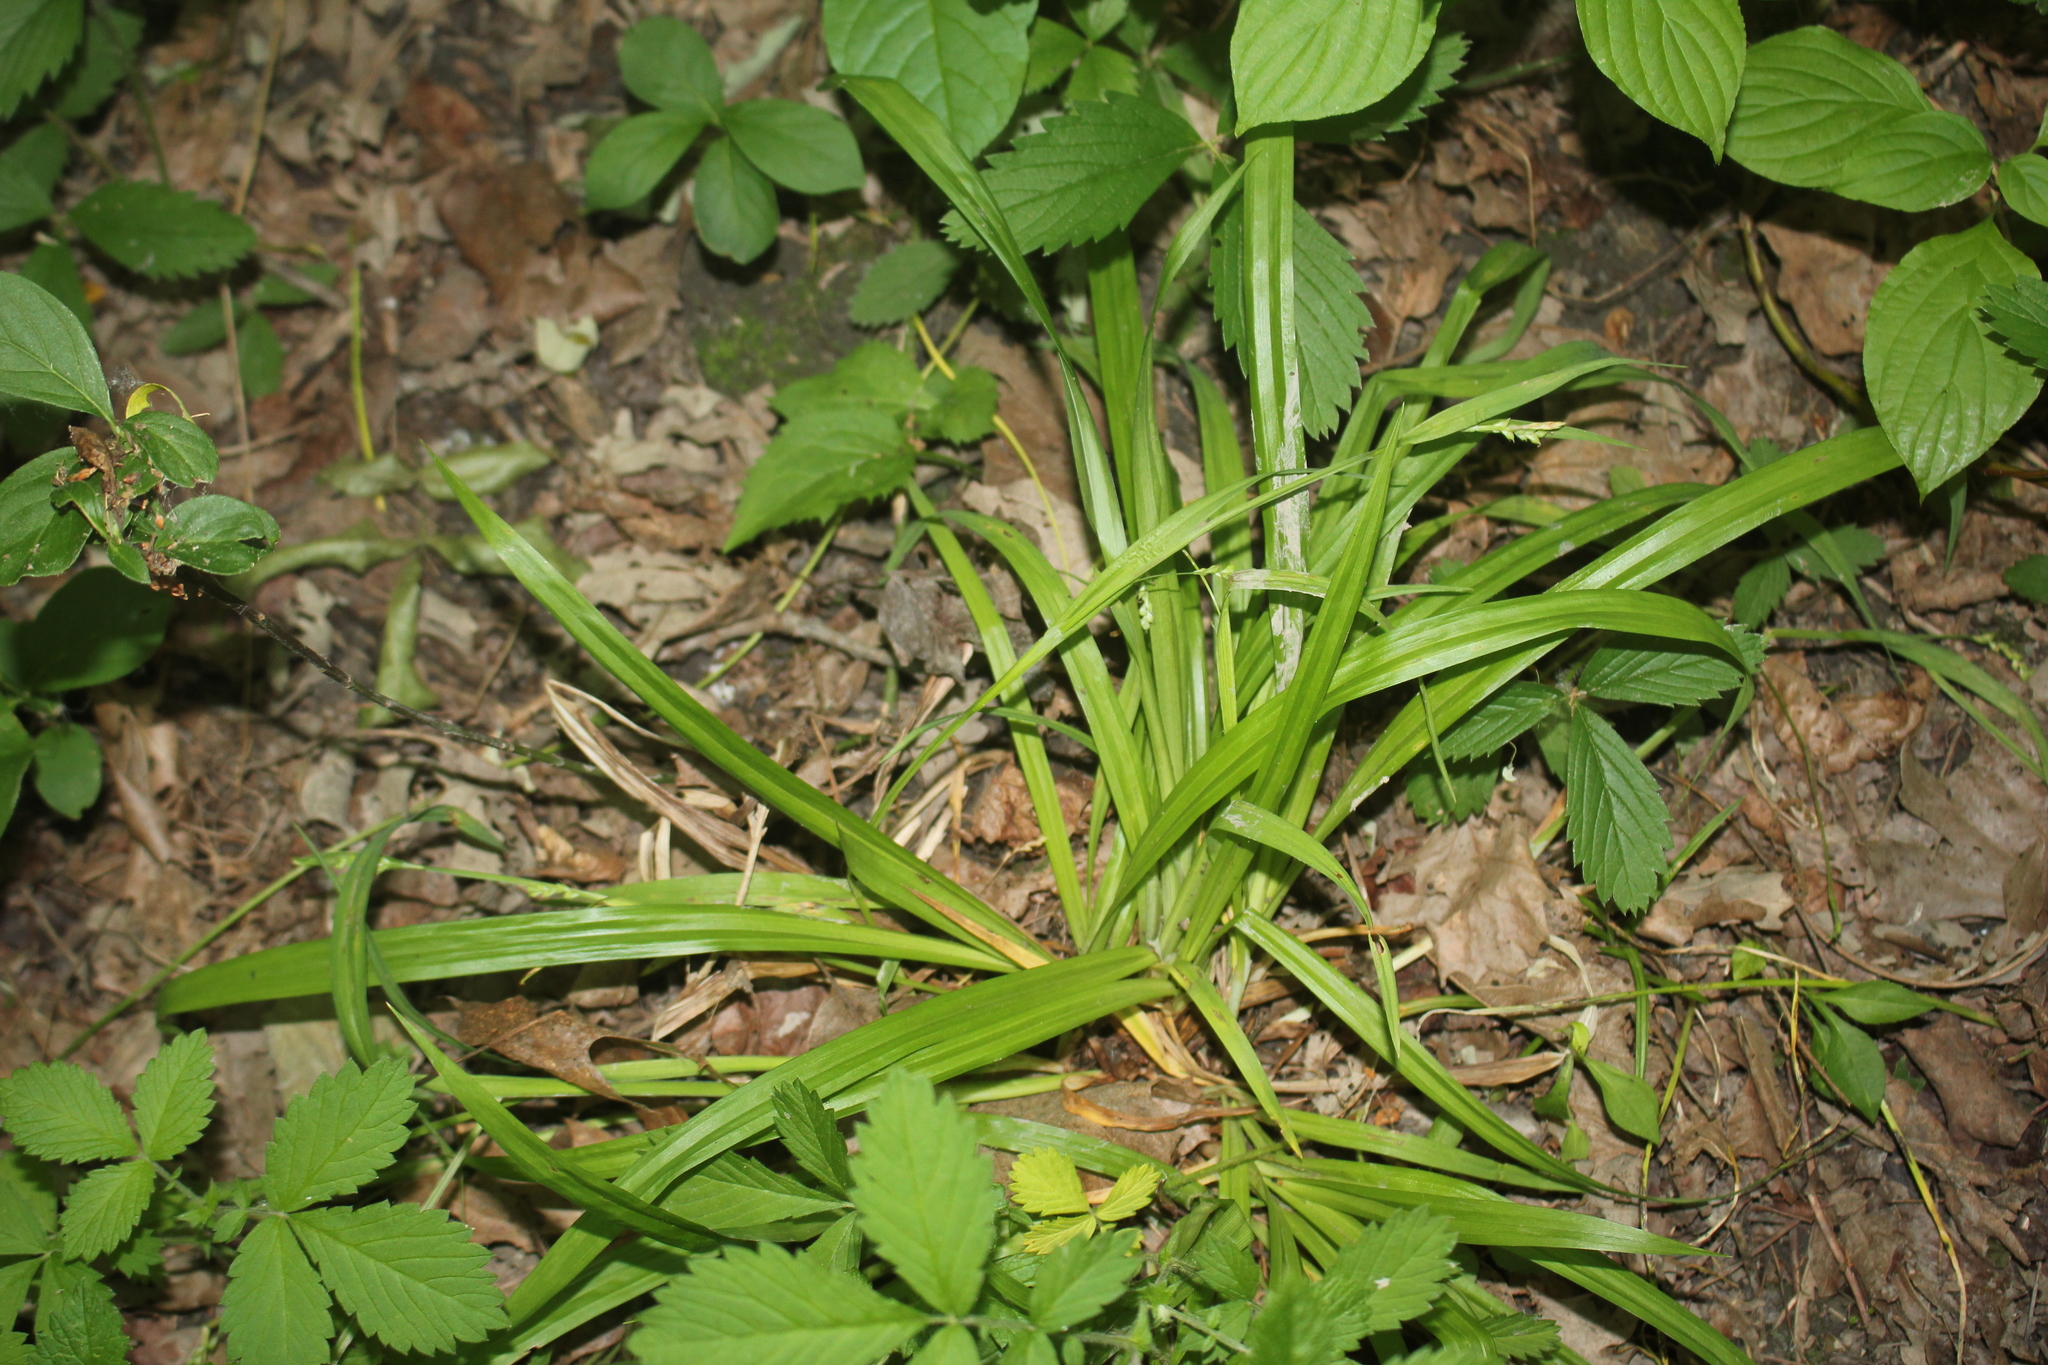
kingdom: Plantae
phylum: Tracheophyta
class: Liliopsida
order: Poales
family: Cyperaceae
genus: Carex
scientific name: Carex leptonervia
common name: Few-nerved wood sedge
